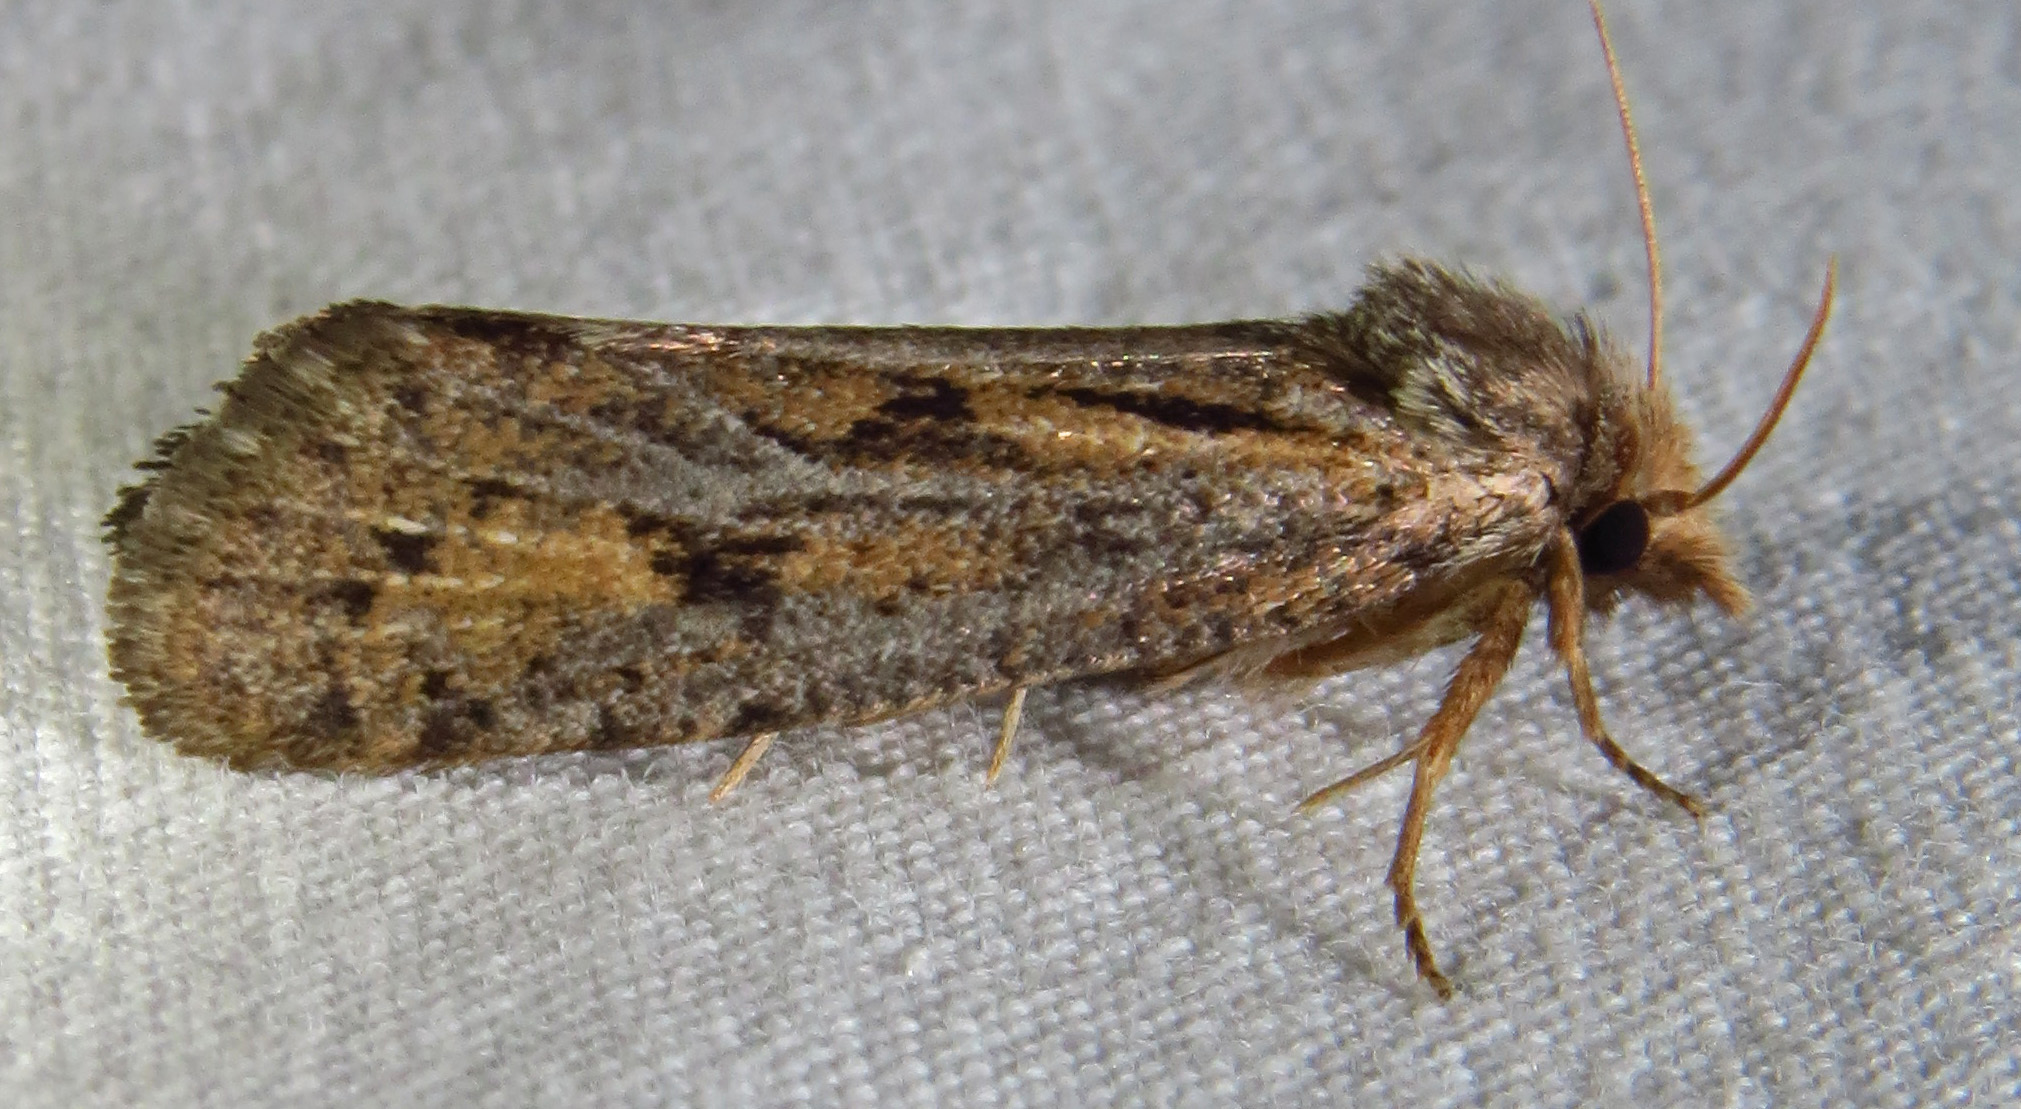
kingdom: Animalia
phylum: Arthropoda
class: Insecta
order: Lepidoptera
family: Tineidae
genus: Acrolophus
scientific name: Acrolophus popeanella
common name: Clemens' grass tubeworm moth
